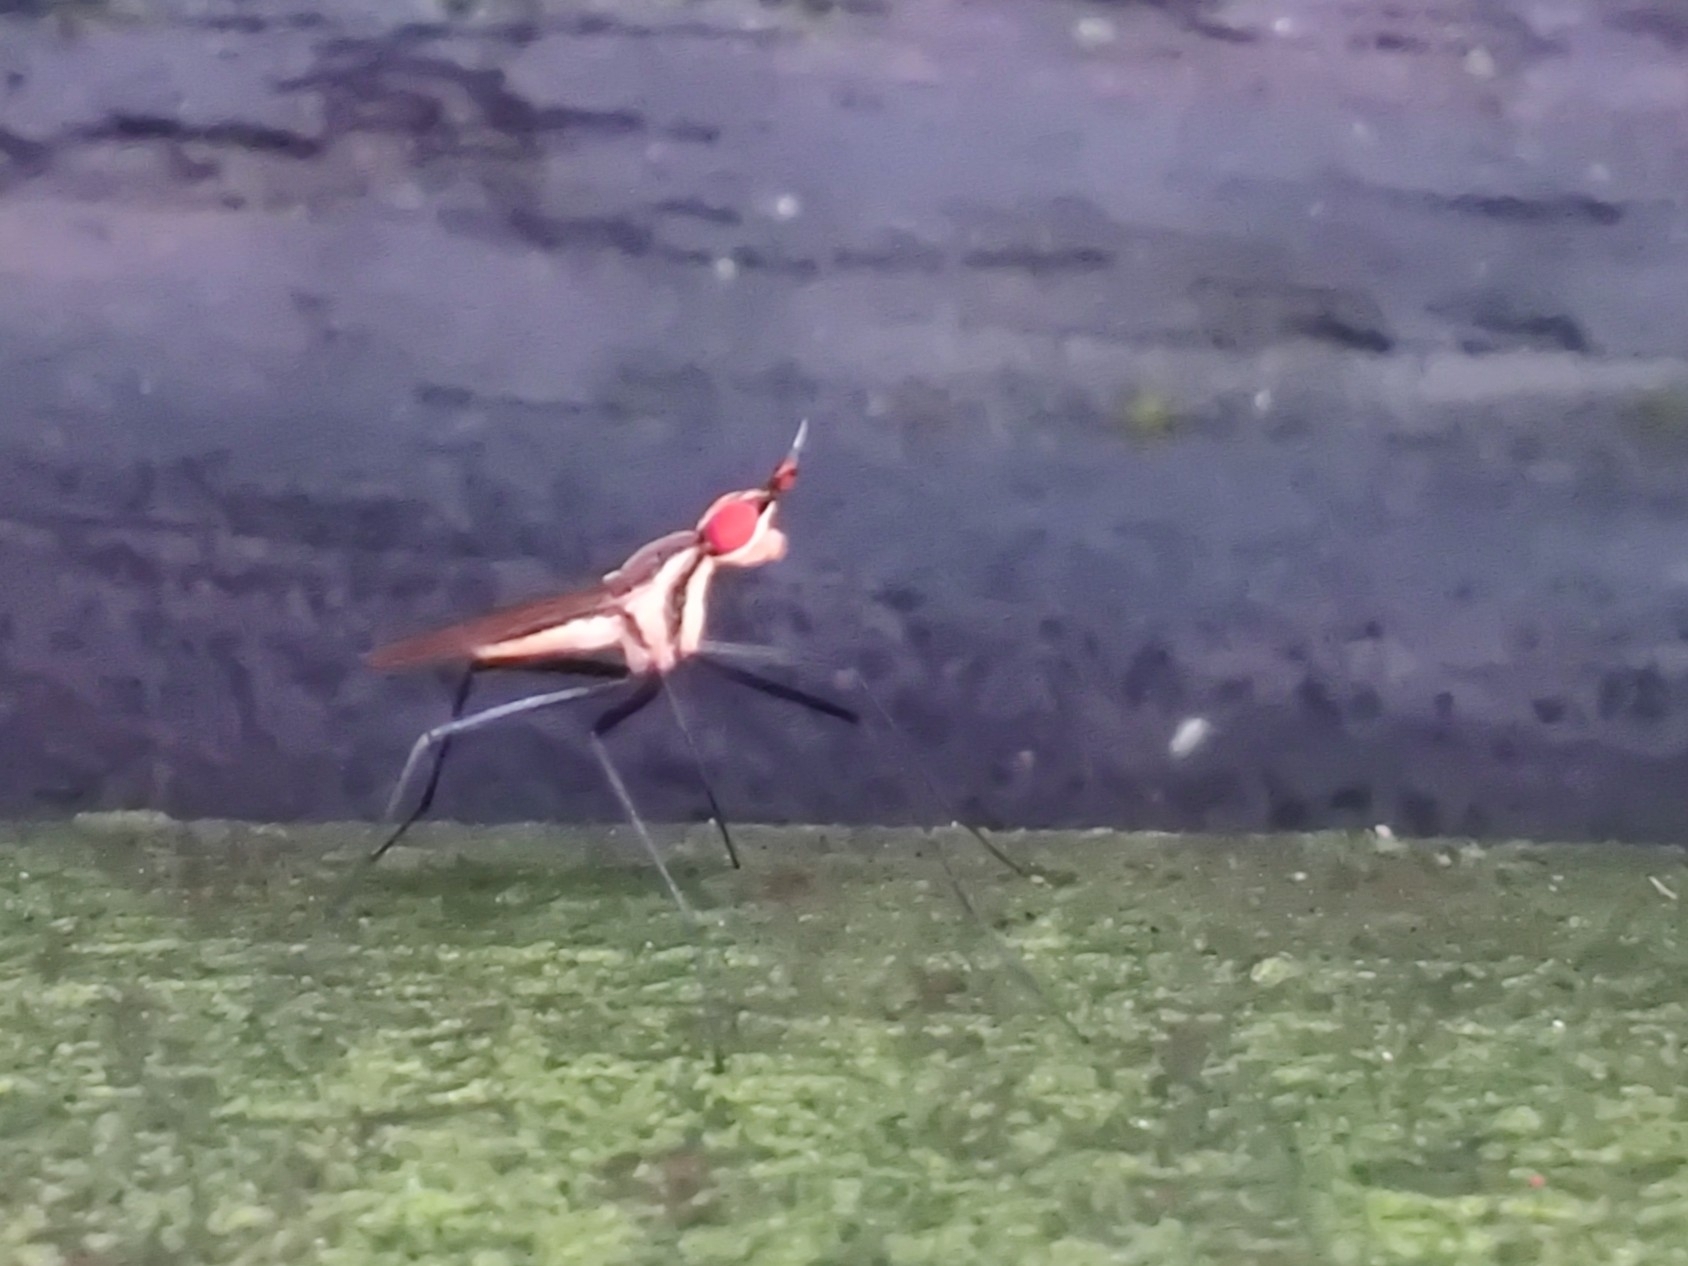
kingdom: Animalia
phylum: Arthropoda
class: Insecta
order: Diptera
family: Neriidae
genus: Telostylinus
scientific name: Telostylinus lineolatus
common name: Banana stalk fly
